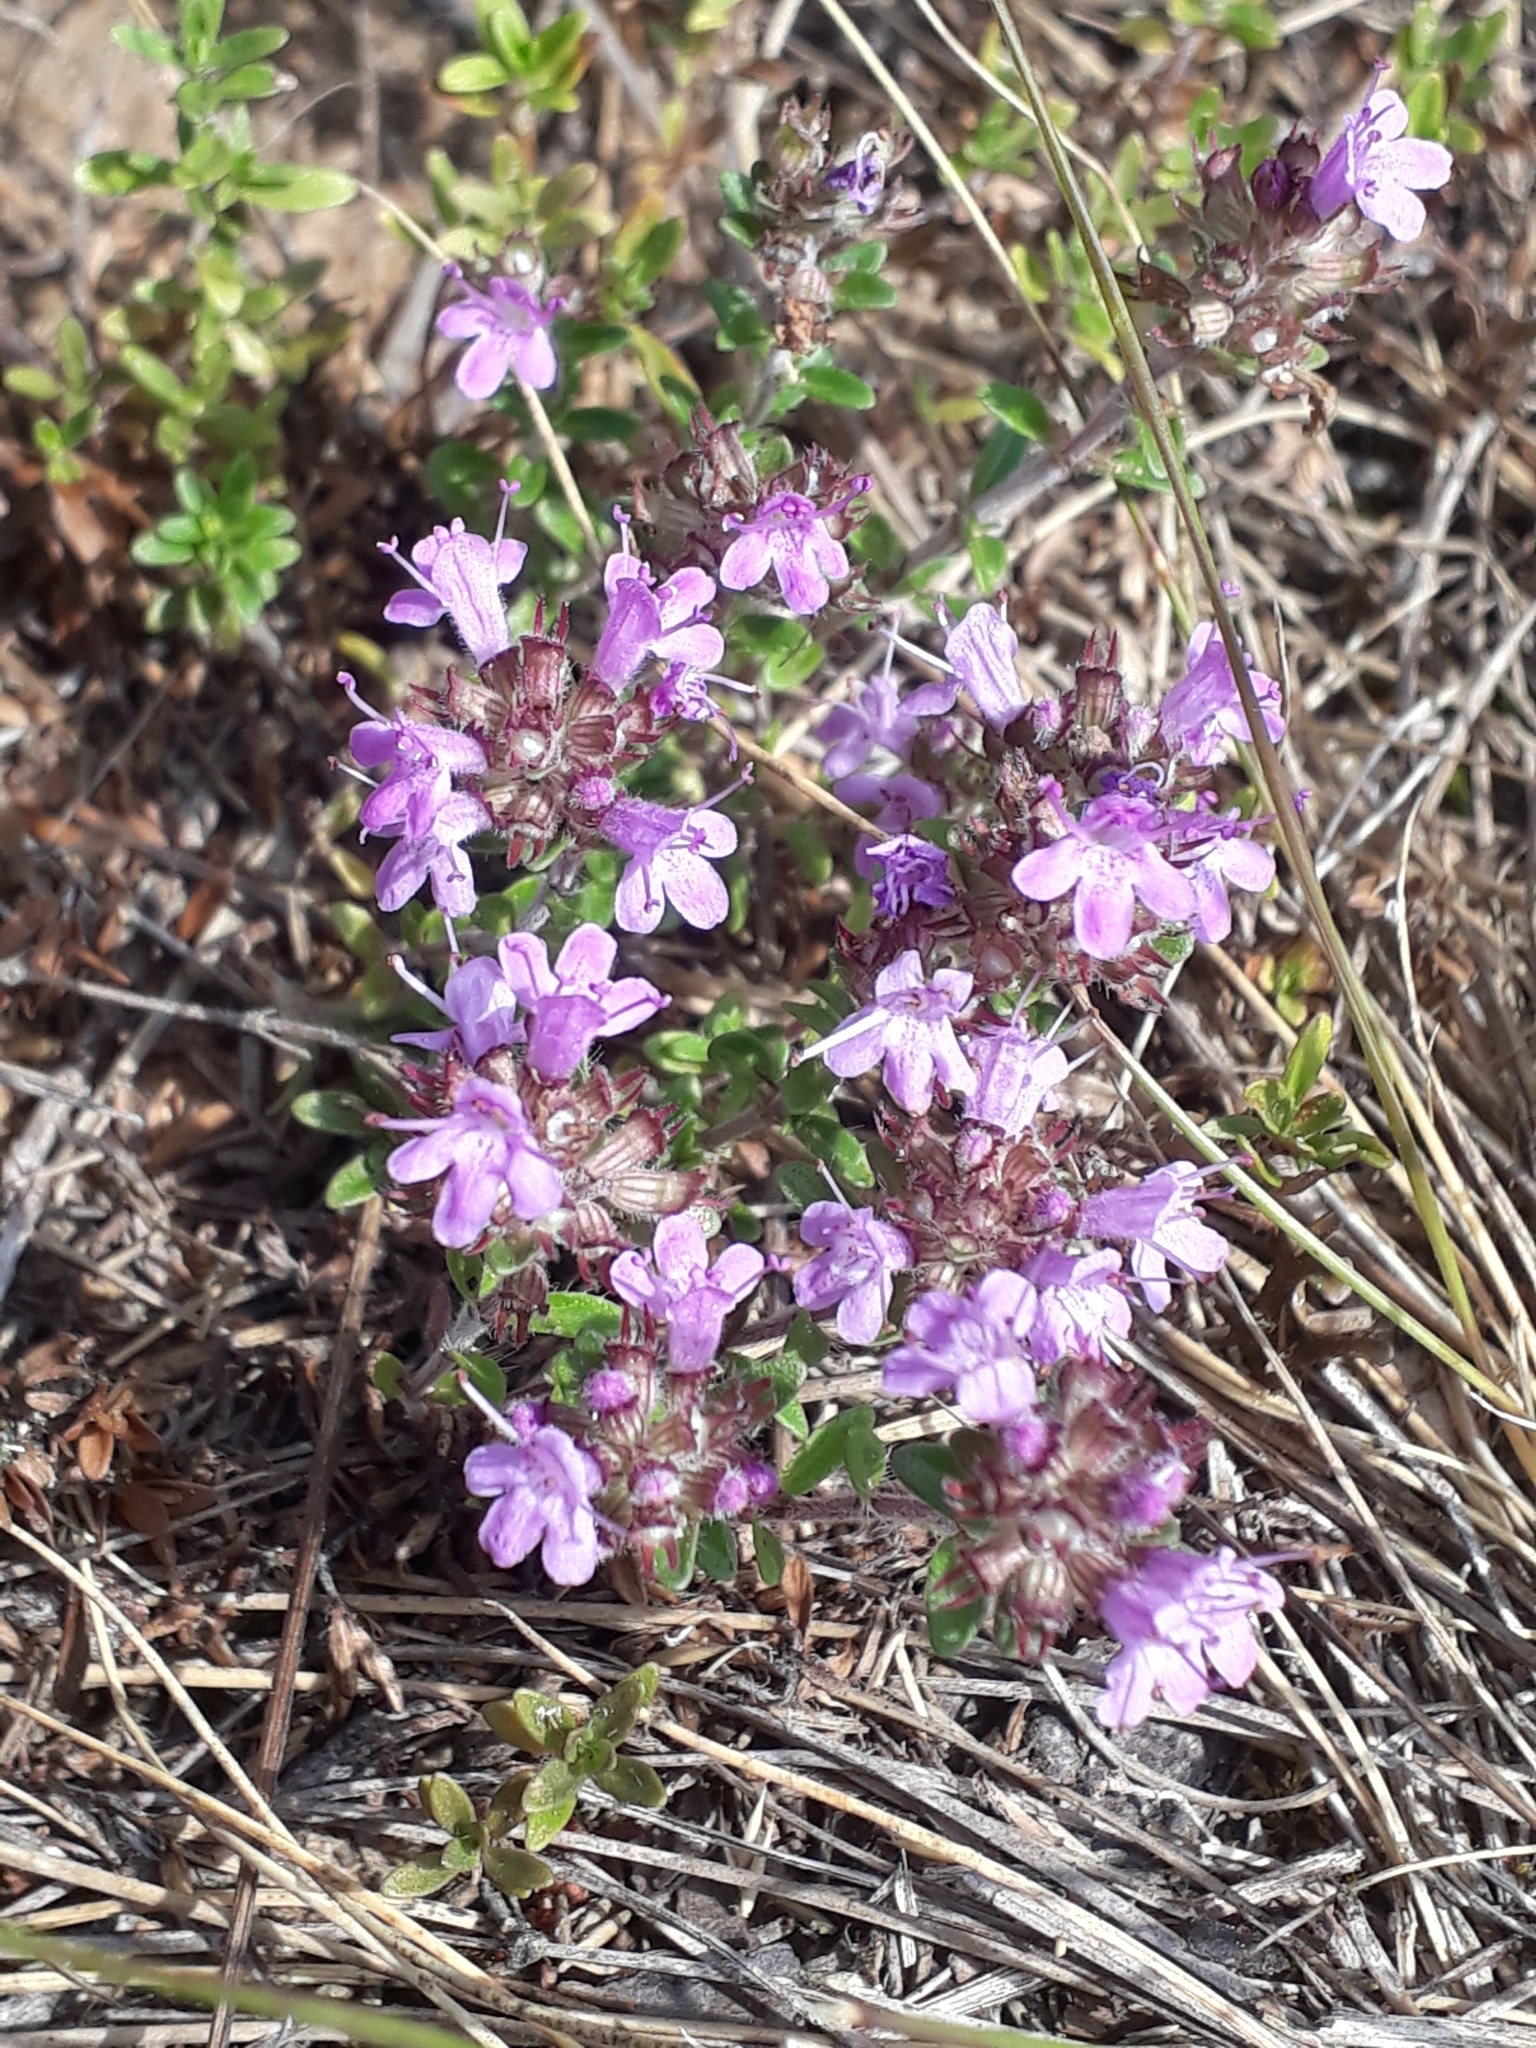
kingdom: Plantae
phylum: Tracheophyta
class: Magnoliopsida
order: Lamiales
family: Lamiaceae
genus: Thymus
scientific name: Thymus serpyllum
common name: Breckland thyme
